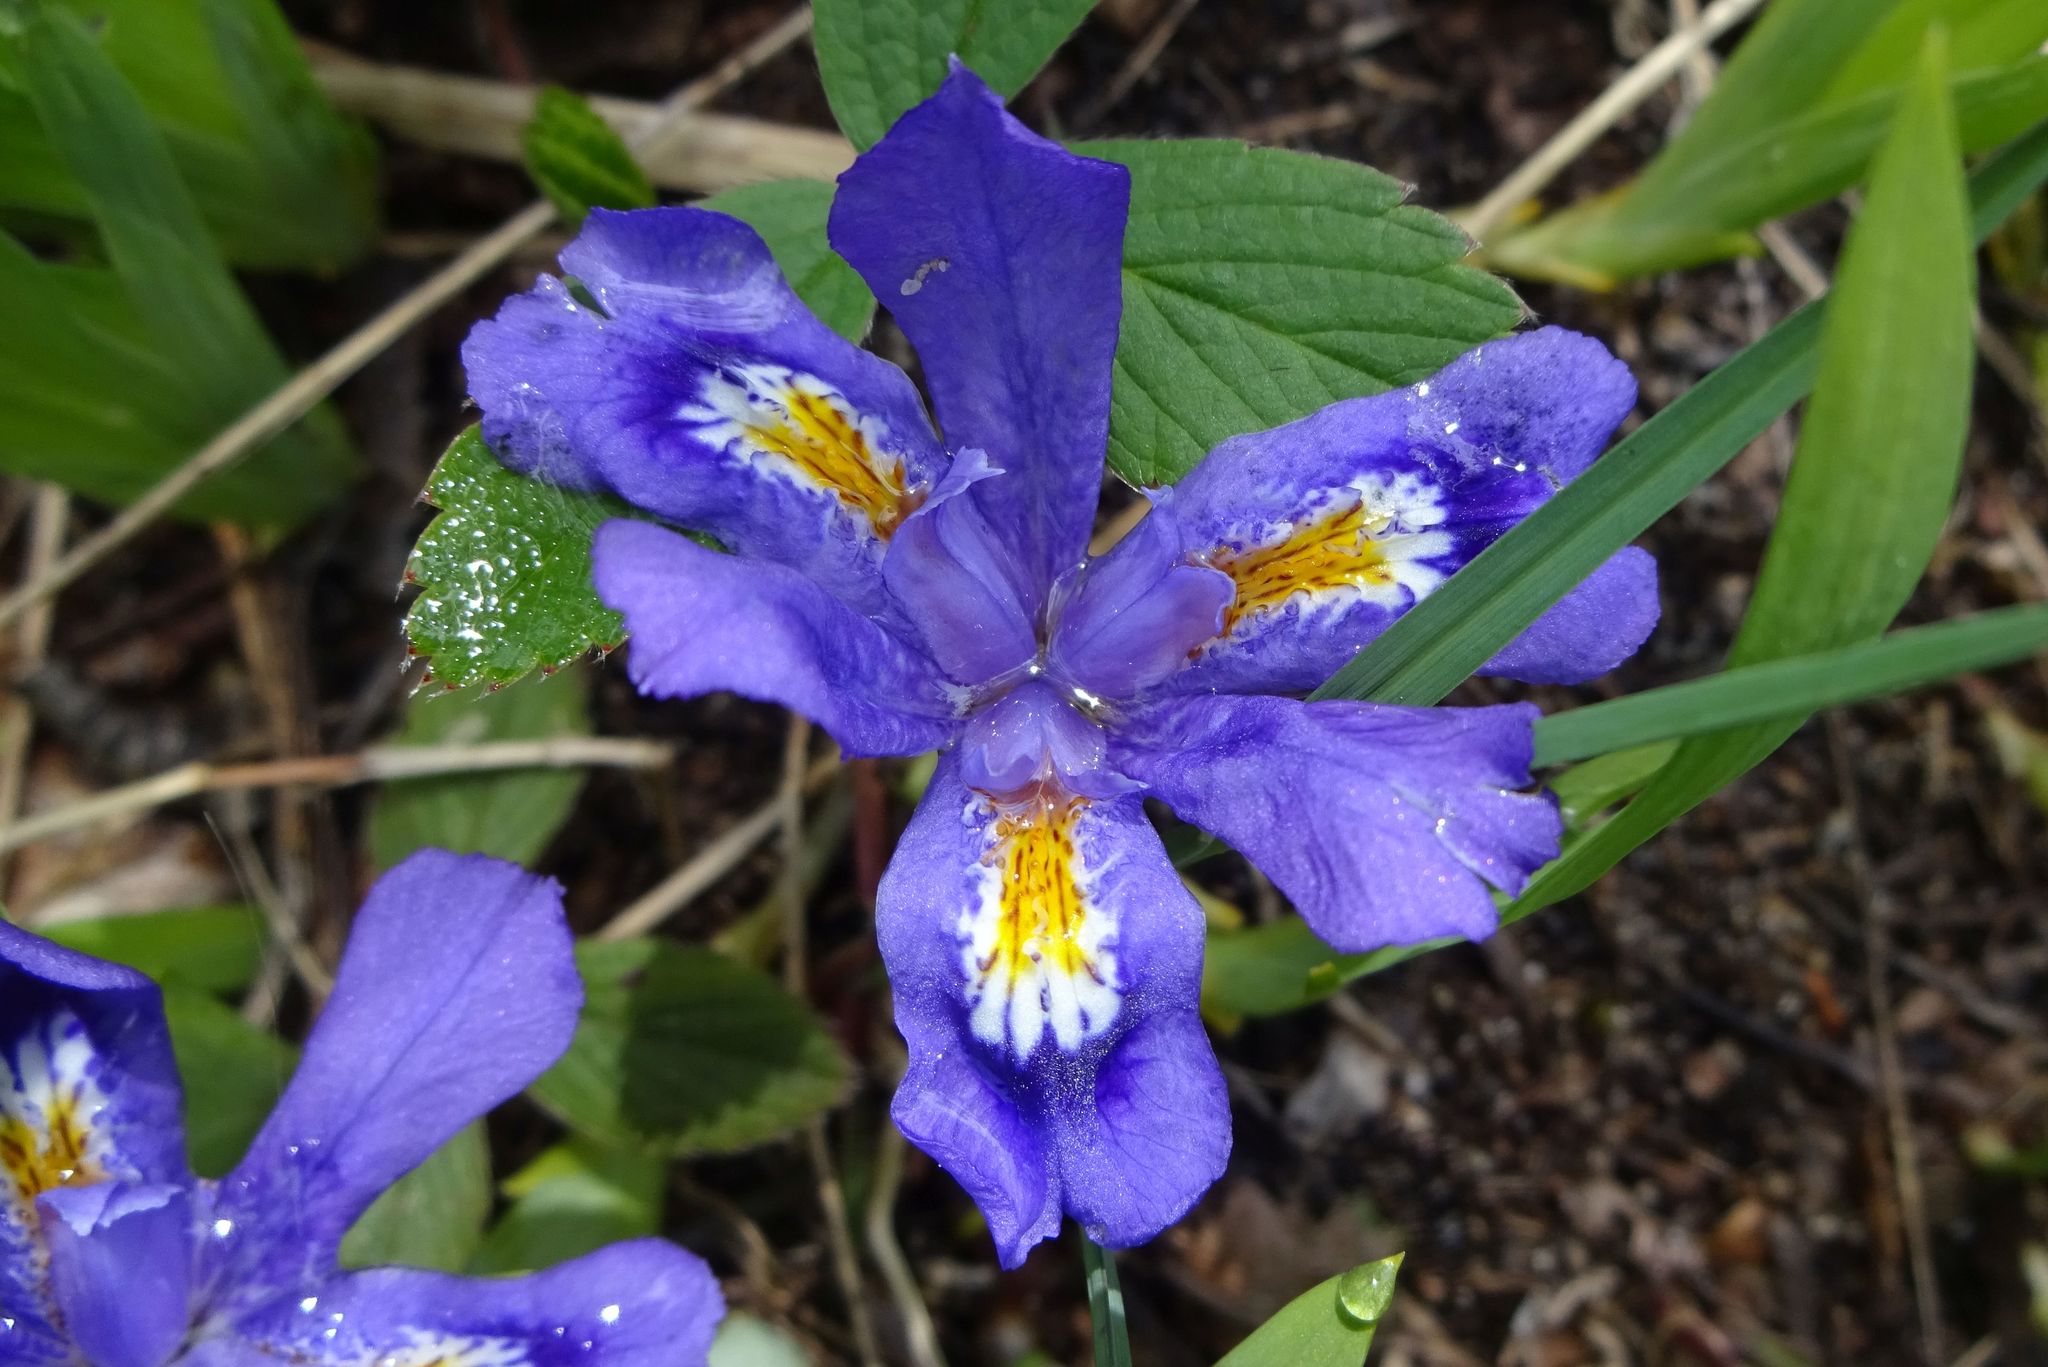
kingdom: Plantae
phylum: Tracheophyta
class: Liliopsida
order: Asparagales
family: Iridaceae
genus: Iris
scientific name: Iris lacustris
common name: Dwarf lake iris
